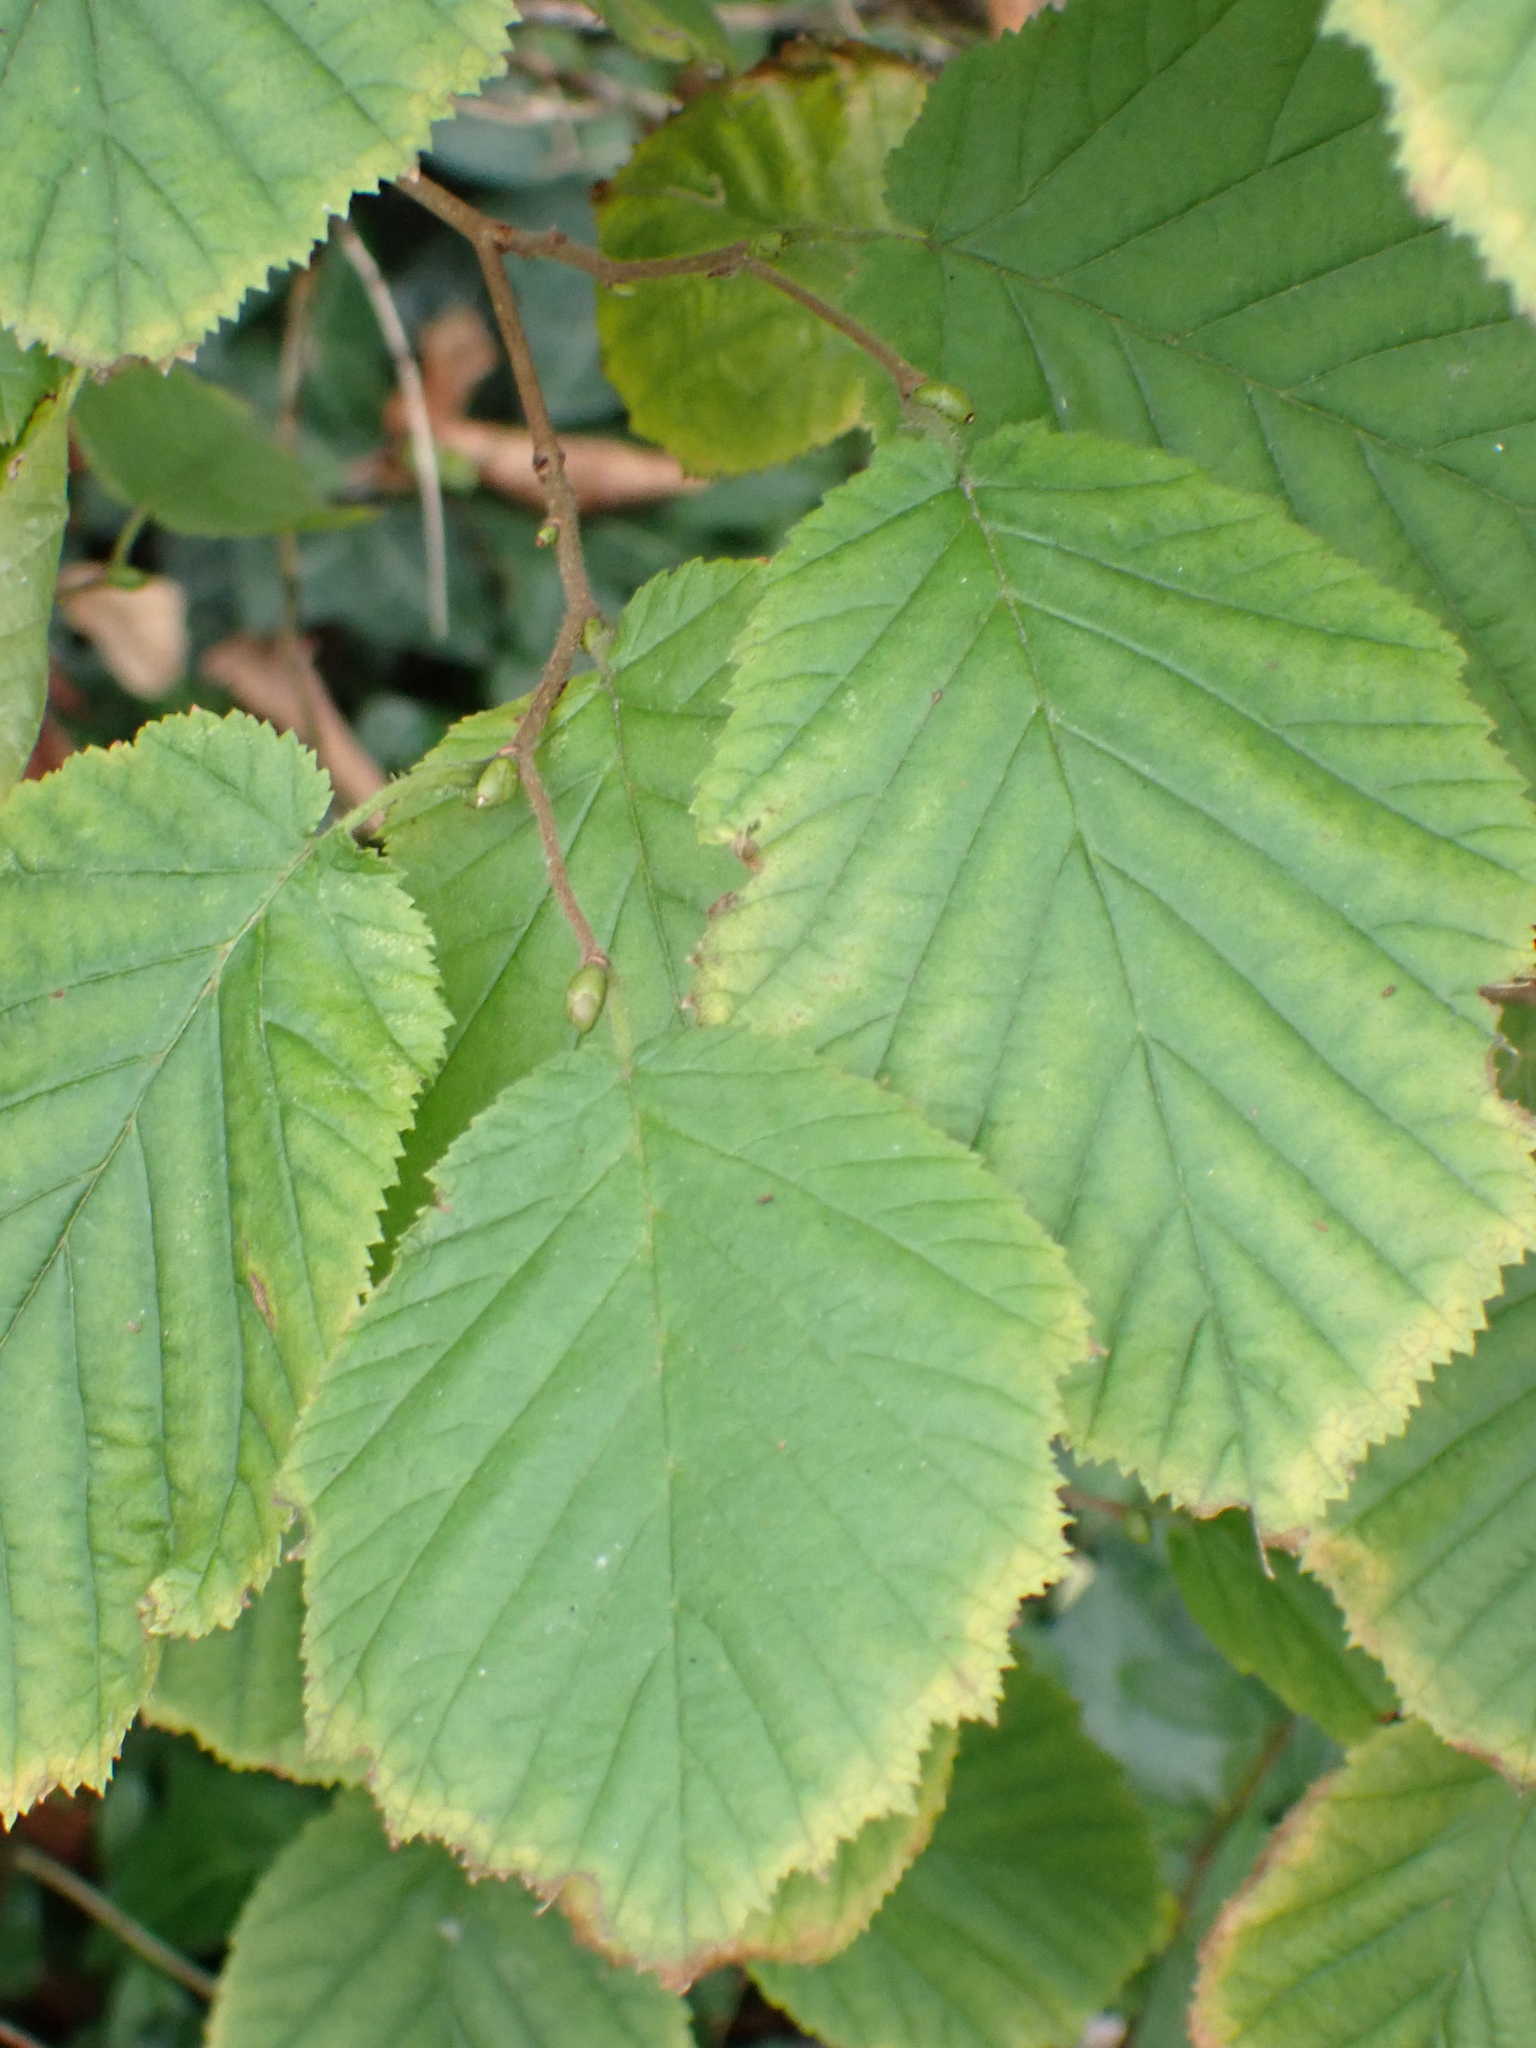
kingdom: Plantae
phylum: Tracheophyta
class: Magnoliopsida
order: Fagales
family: Betulaceae
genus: Corylus
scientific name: Corylus avellana
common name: European hazel
